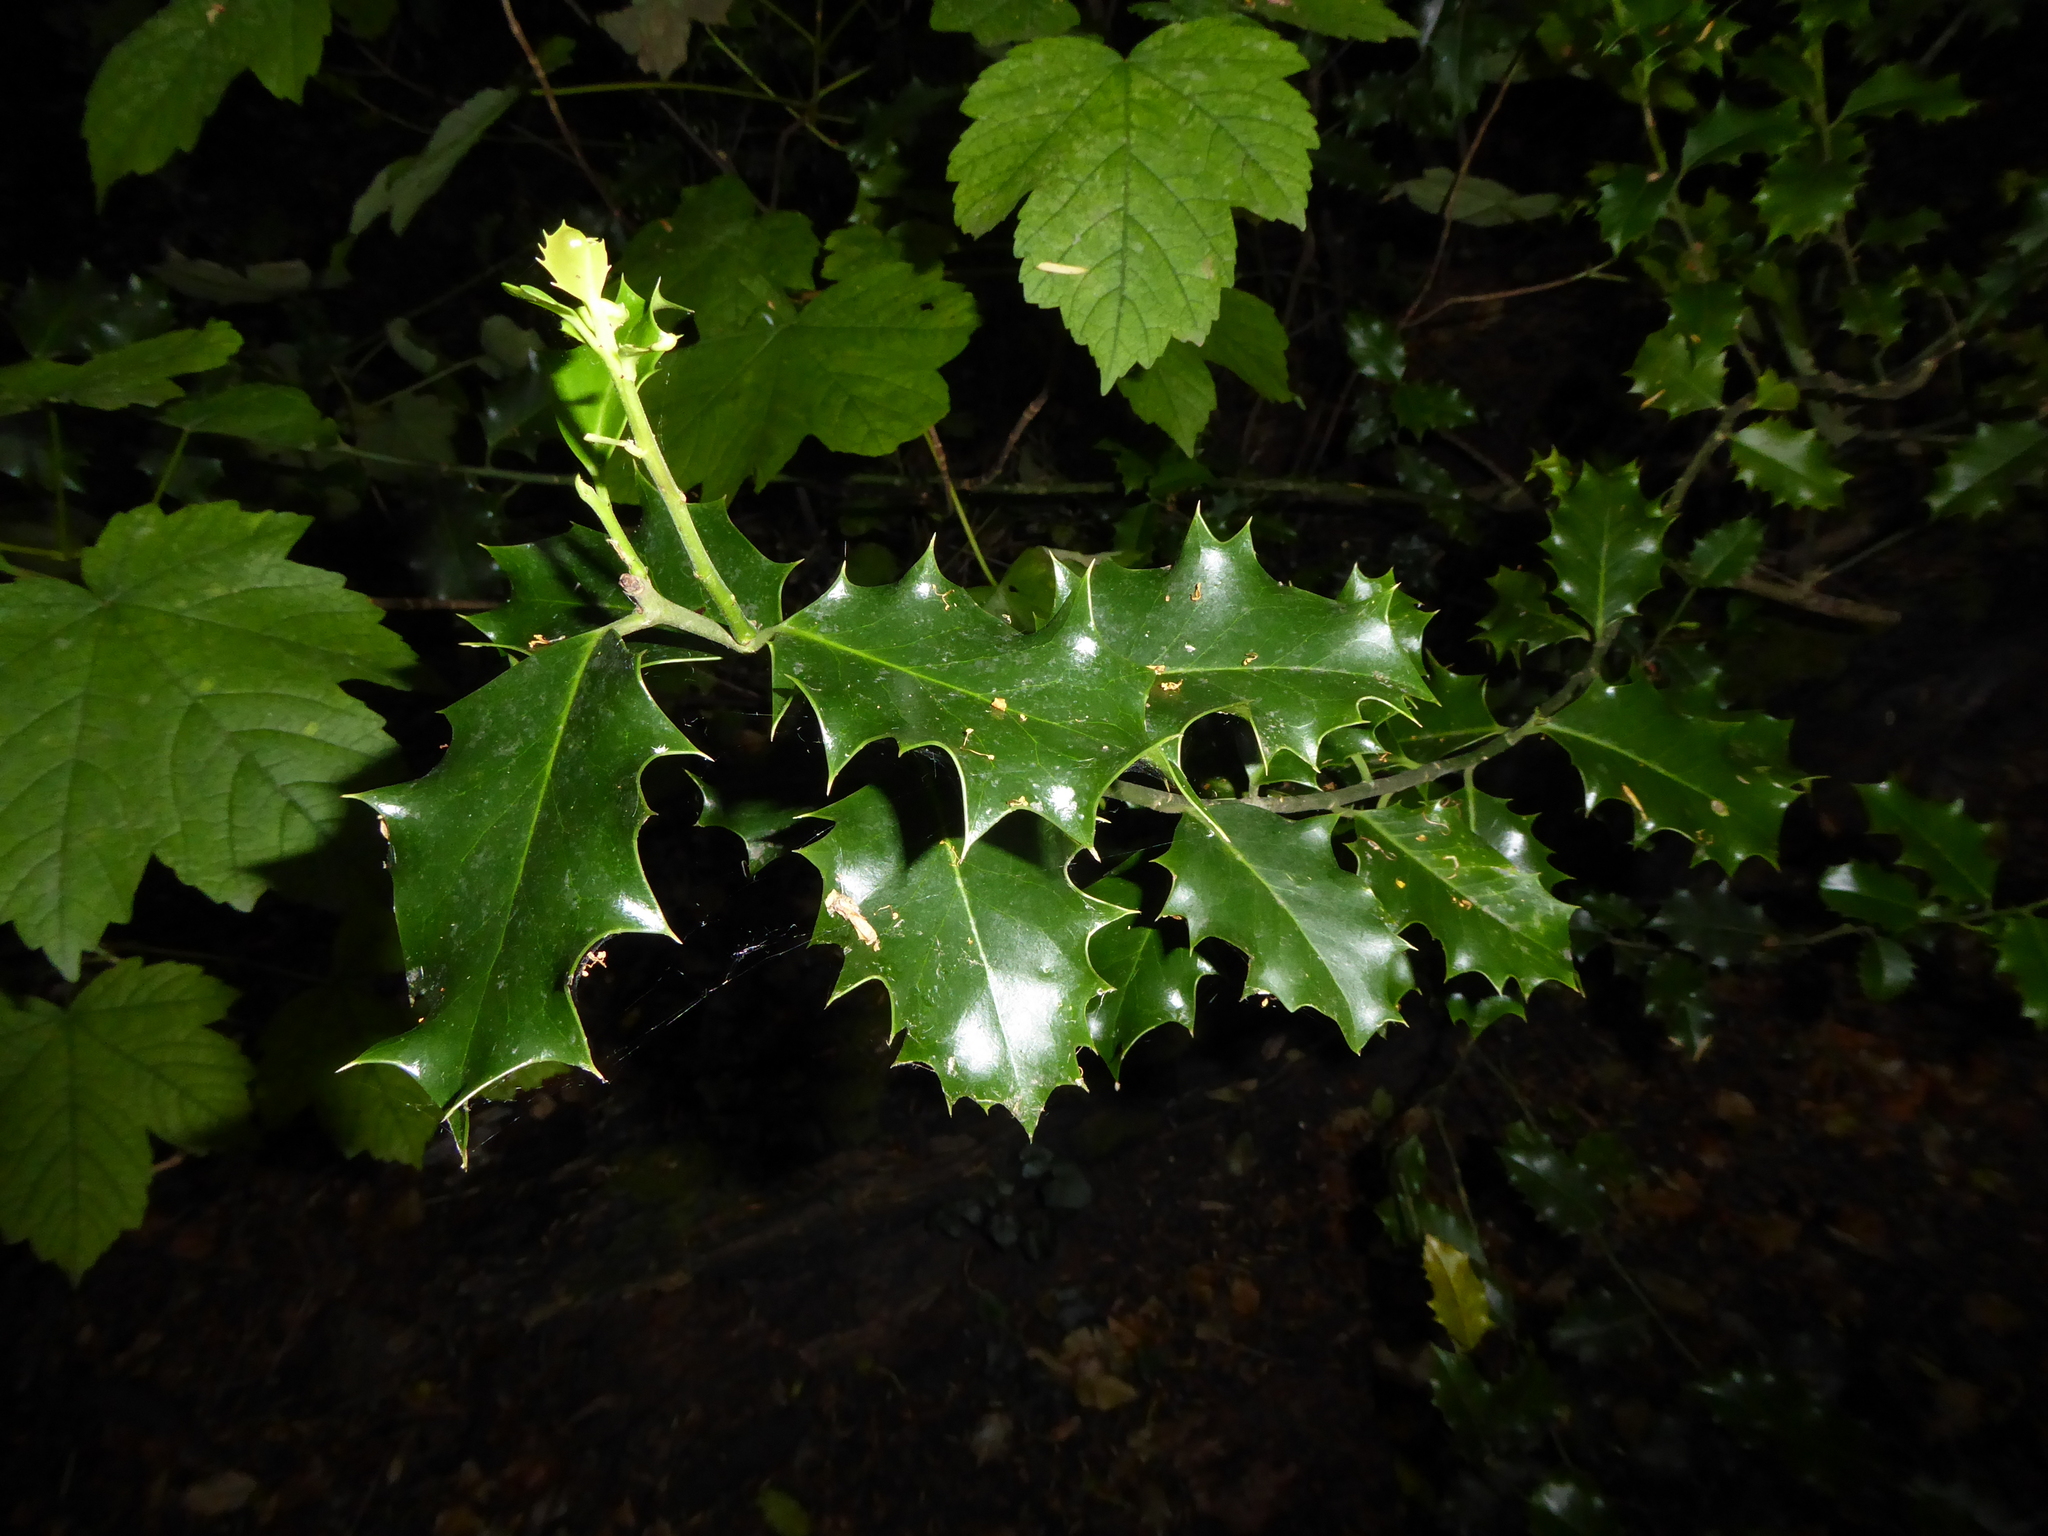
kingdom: Plantae
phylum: Tracheophyta
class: Magnoliopsida
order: Aquifoliales
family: Aquifoliaceae
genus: Ilex
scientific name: Ilex aquifolium
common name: English holly
